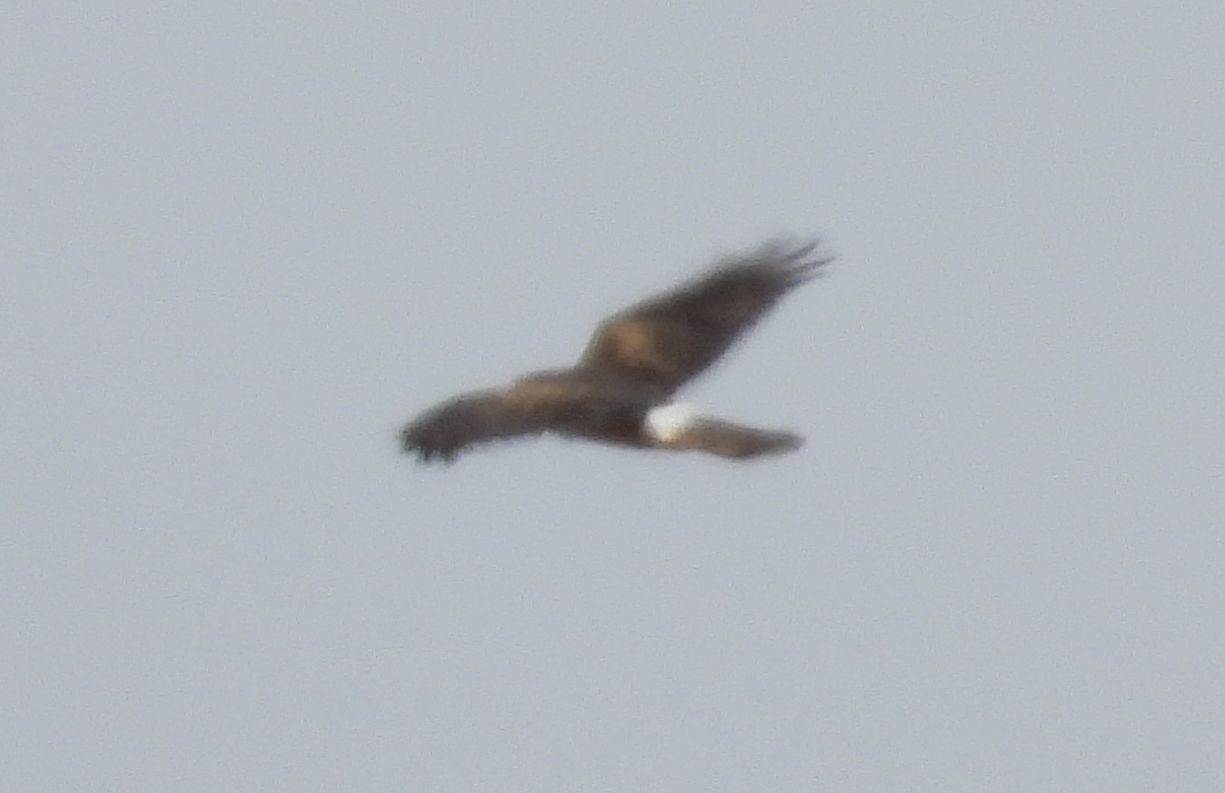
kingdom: Animalia
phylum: Chordata
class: Aves
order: Accipitriformes
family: Accipitridae
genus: Circus
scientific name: Circus cyaneus
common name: Hen harrier
